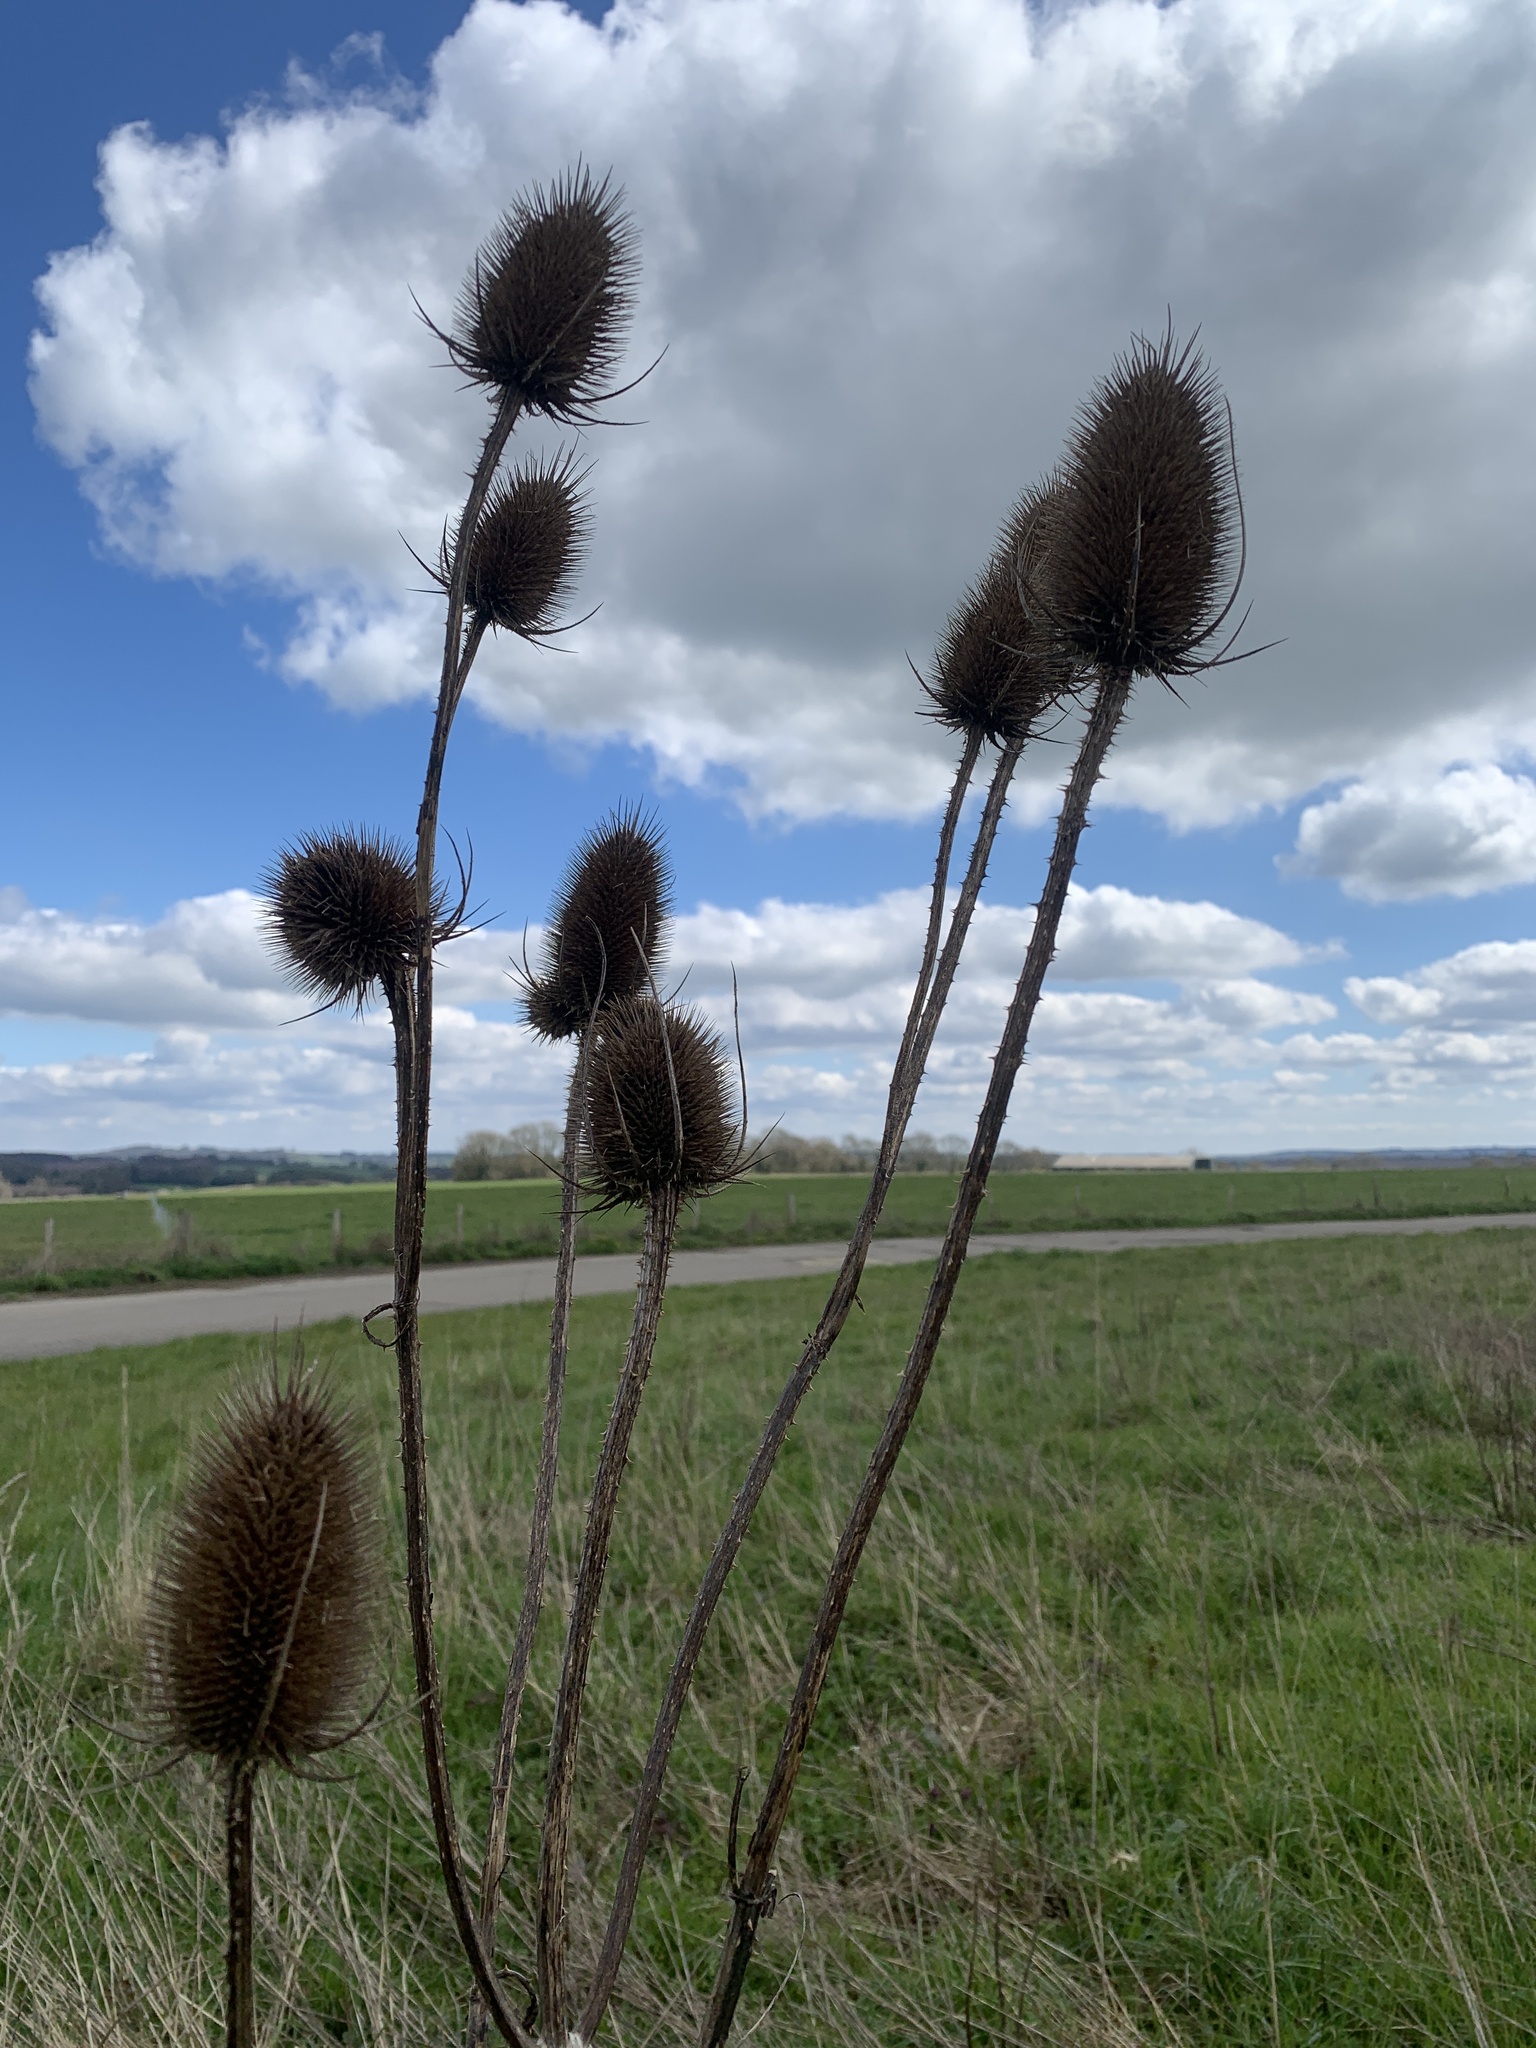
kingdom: Plantae
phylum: Tracheophyta
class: Magnoliopsida
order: Dipsacales
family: Caprifoliaceae
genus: Dipsacus
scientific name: Dipsacus fullonum
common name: Teasel
